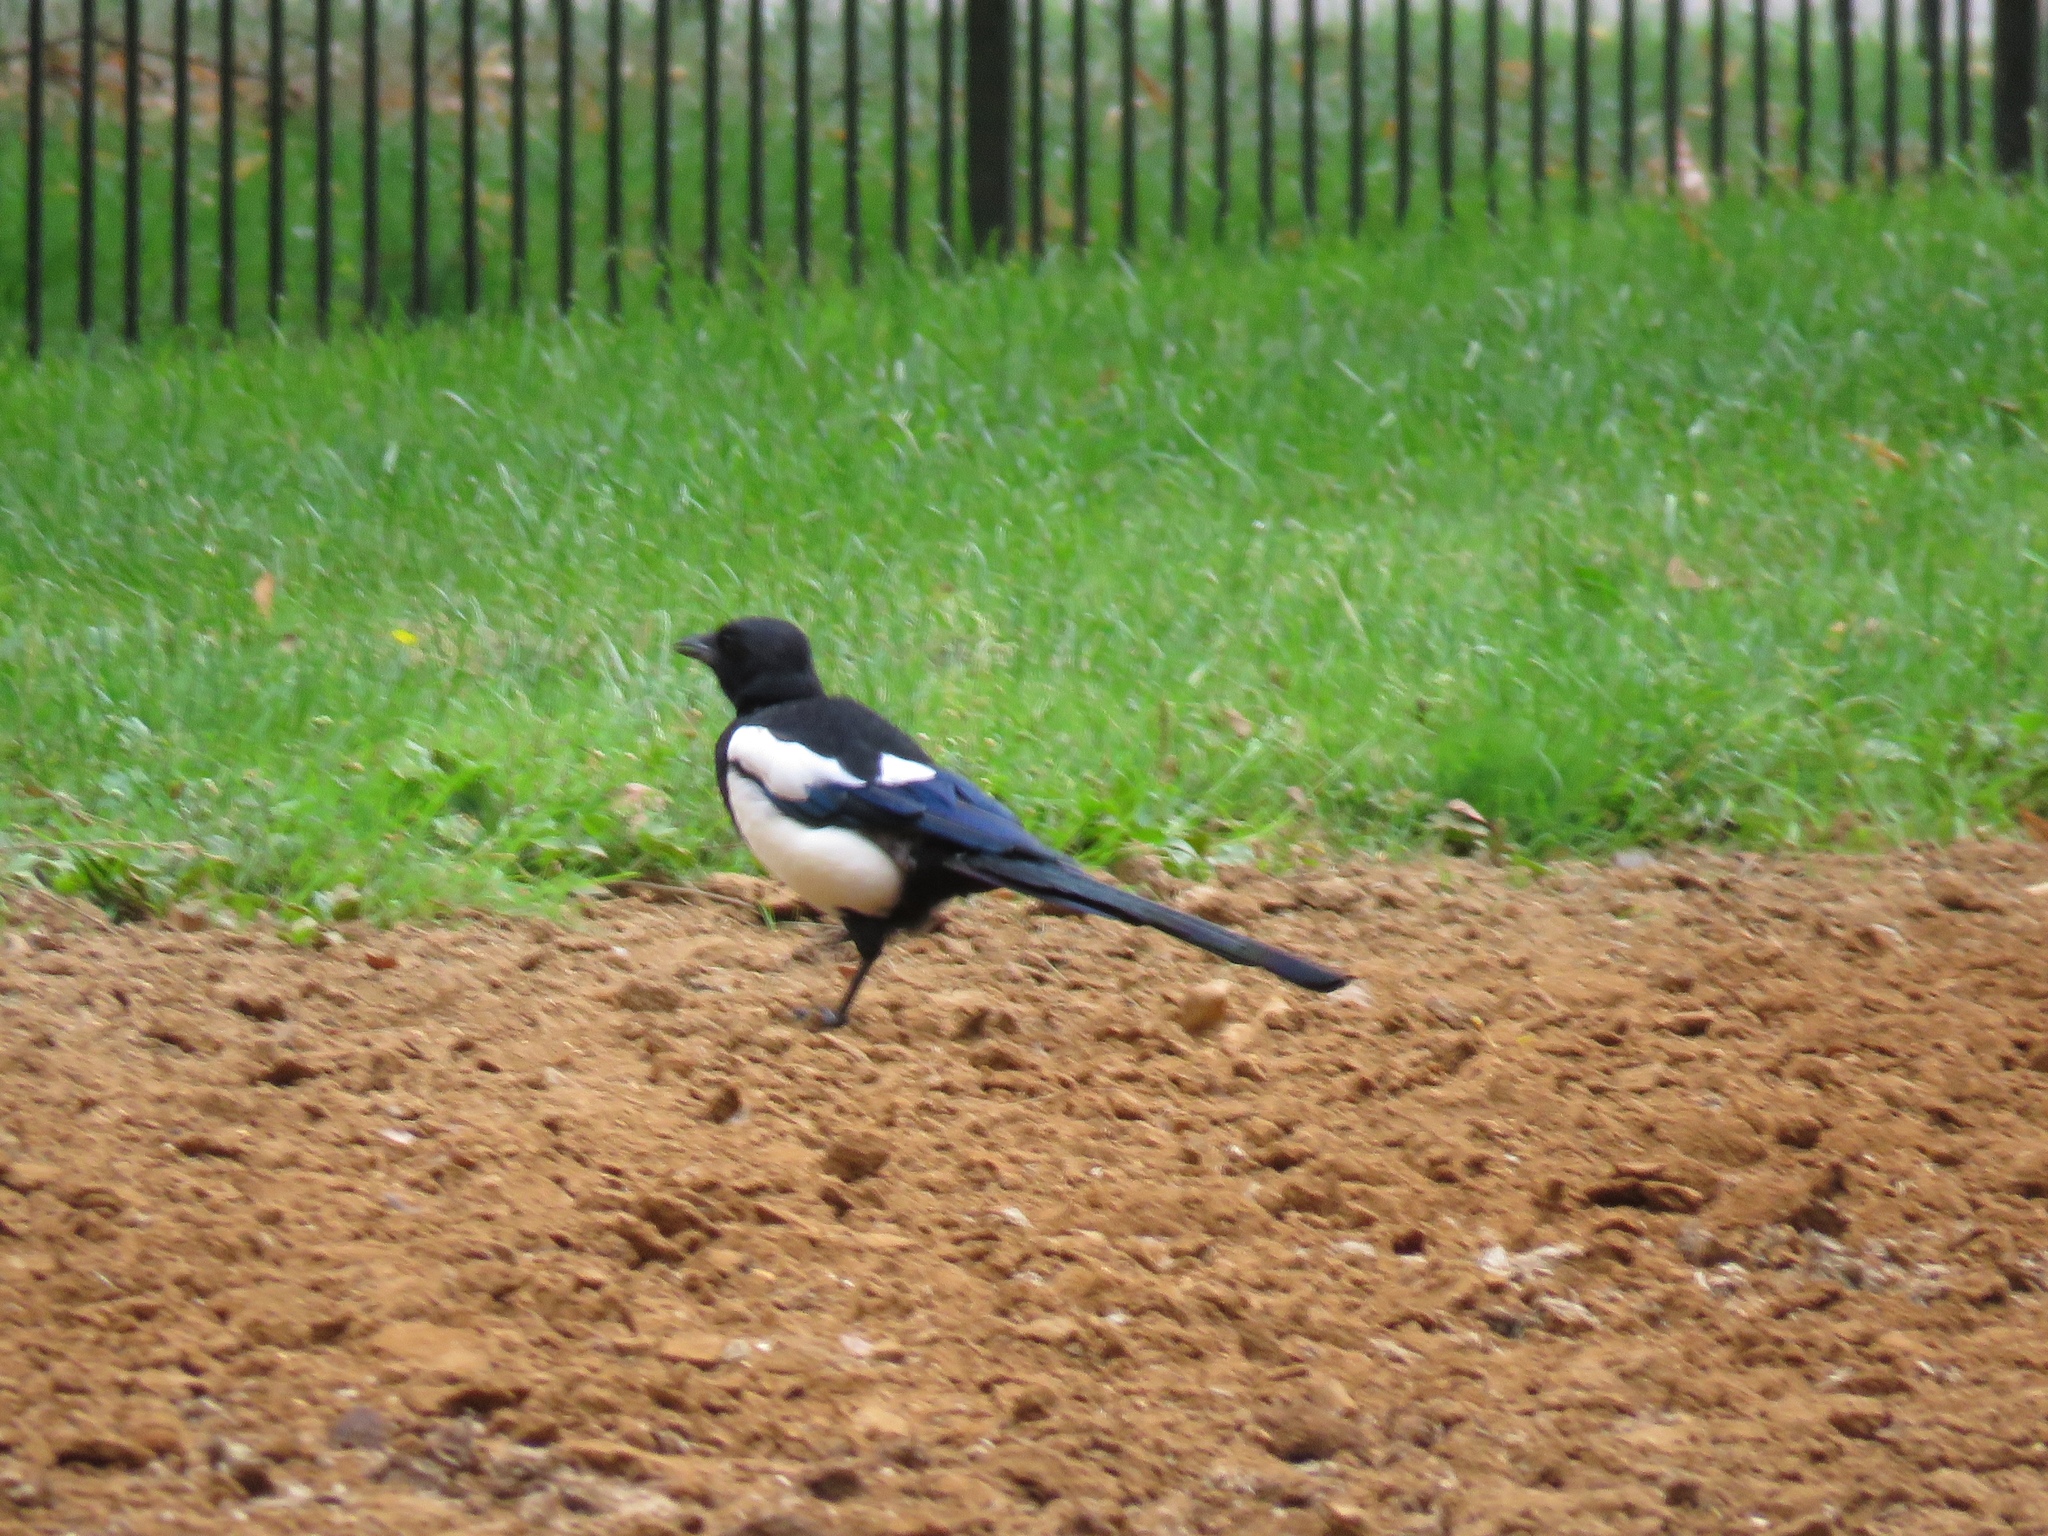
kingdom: Animalia
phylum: Chordata
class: Aves
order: Passeriformes
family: Corvidae
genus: Pica
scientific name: Pica pica
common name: Eurasian magpie
